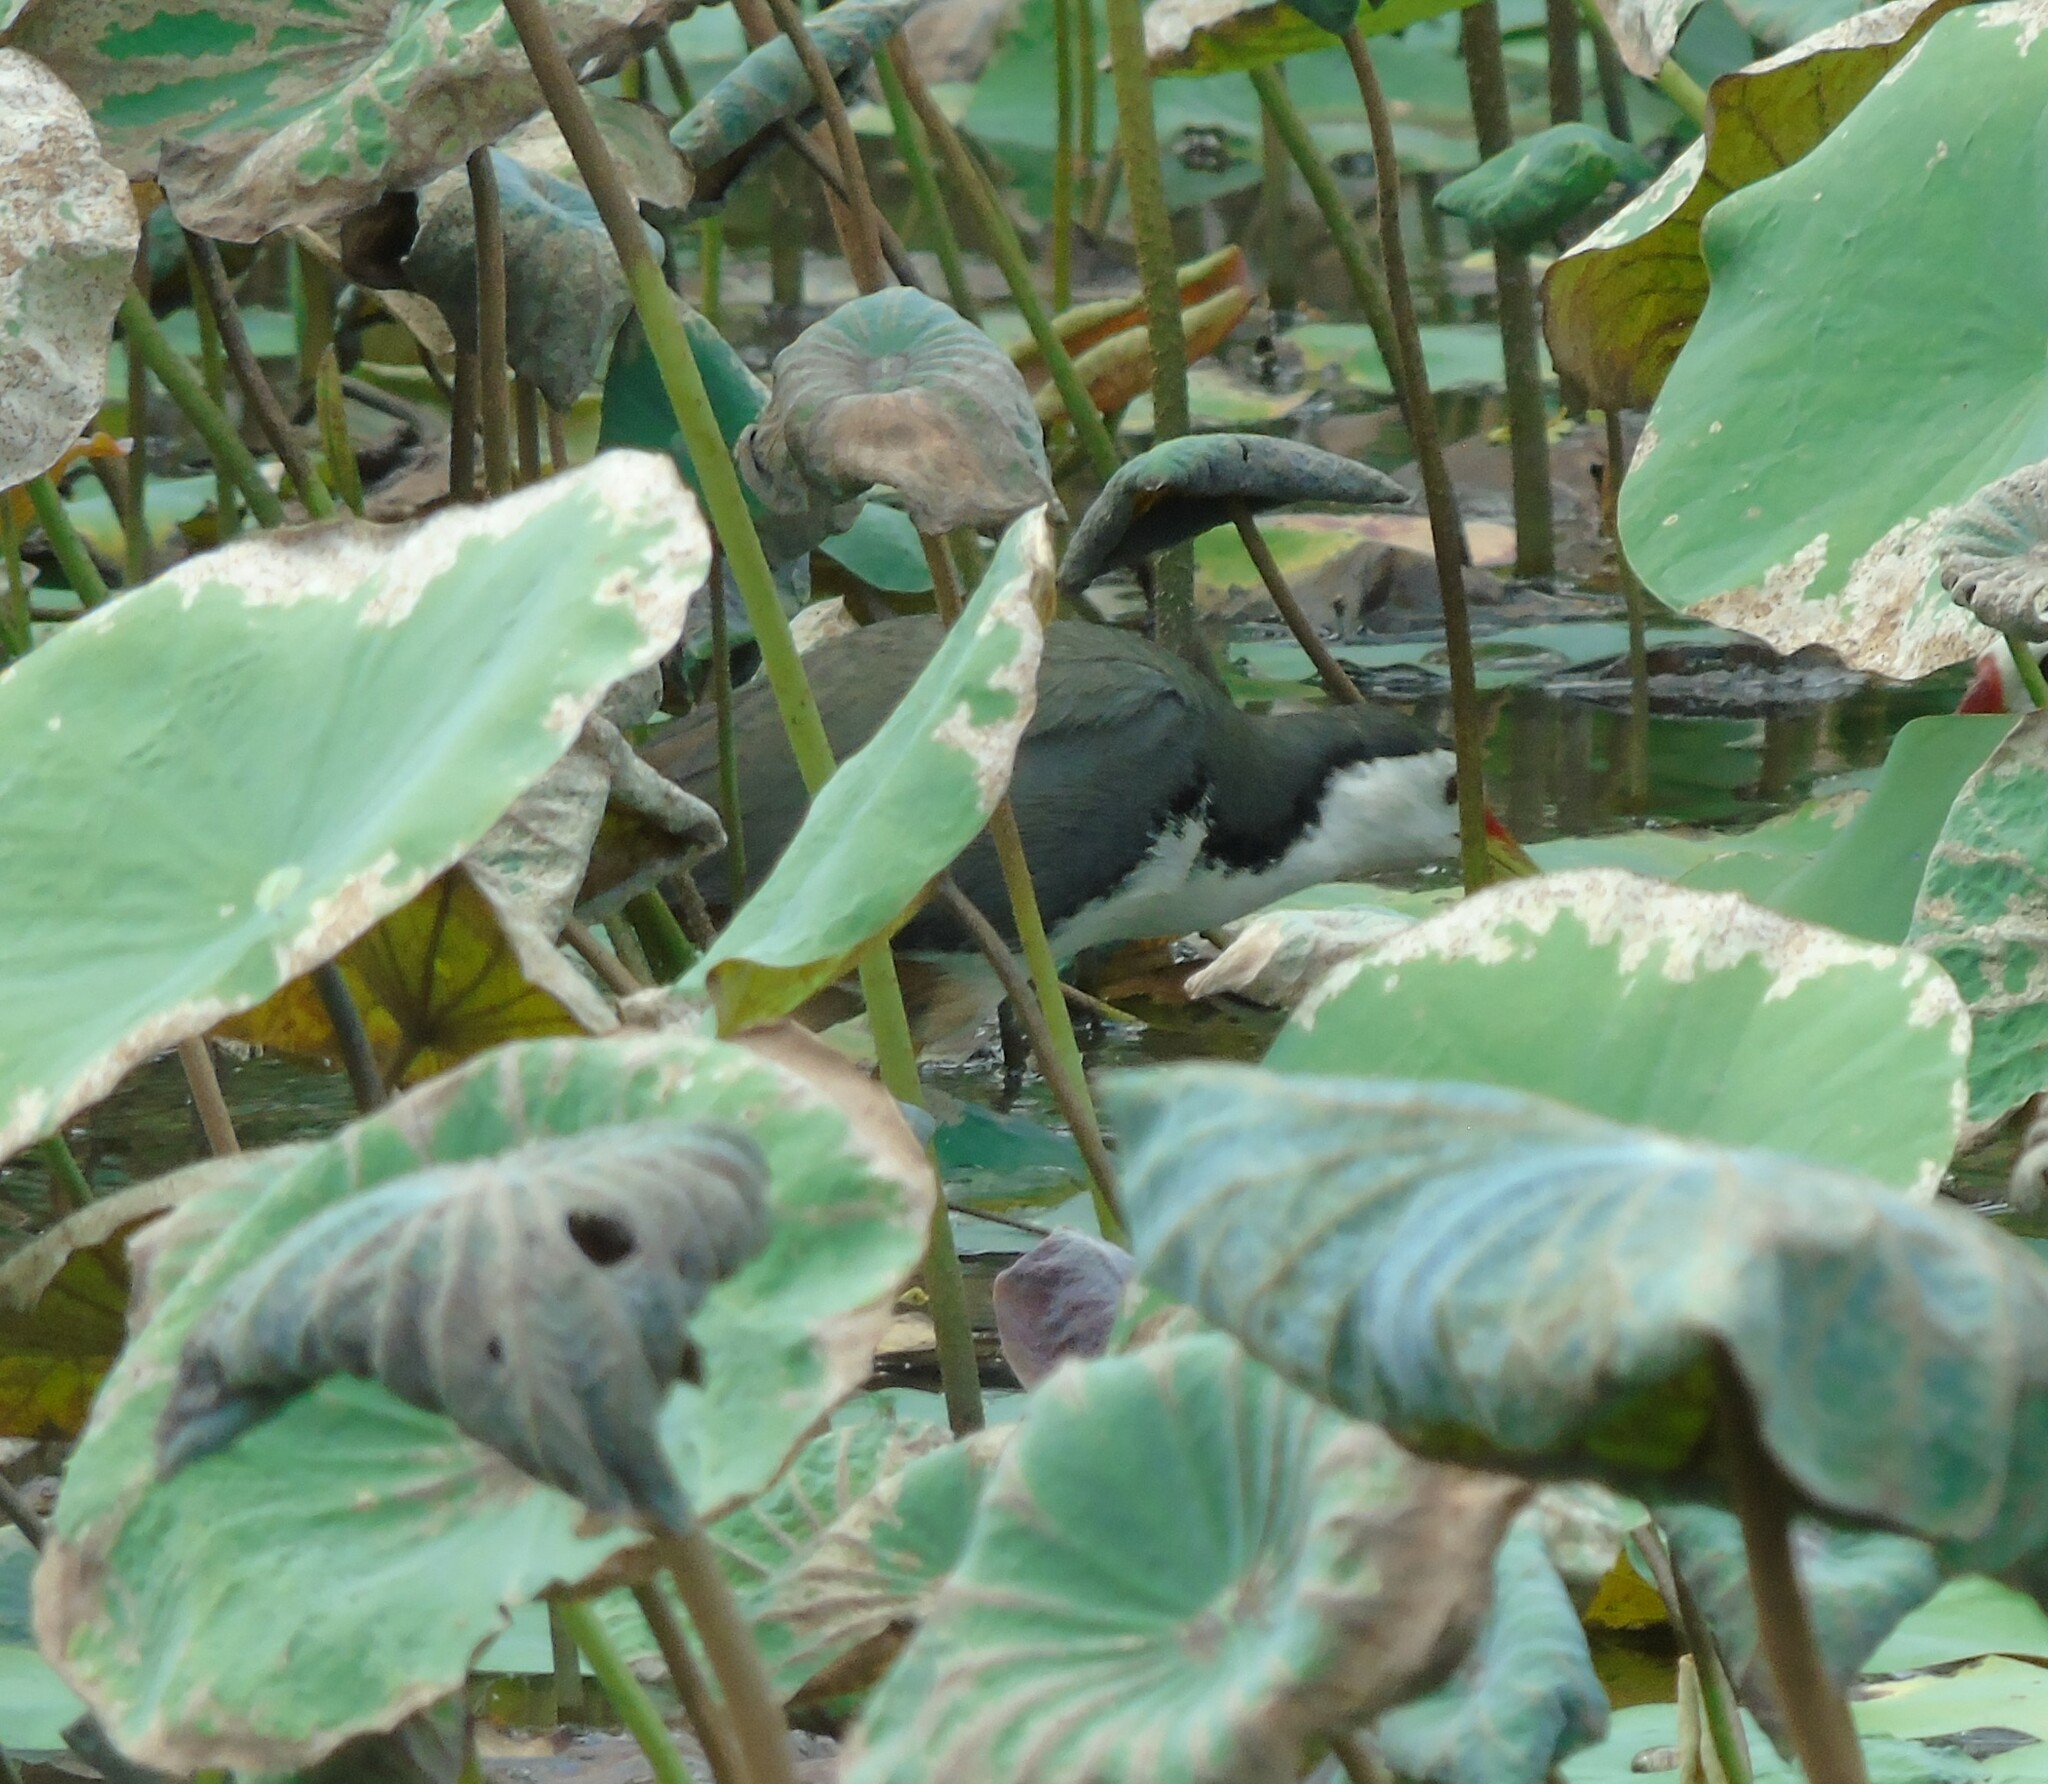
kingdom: Animalia
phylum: Chordata
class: Aves
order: Gruiformes
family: Rallidae
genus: Amaurornis
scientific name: Amaurornis phoenicurus
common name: White-breasted waterhen
